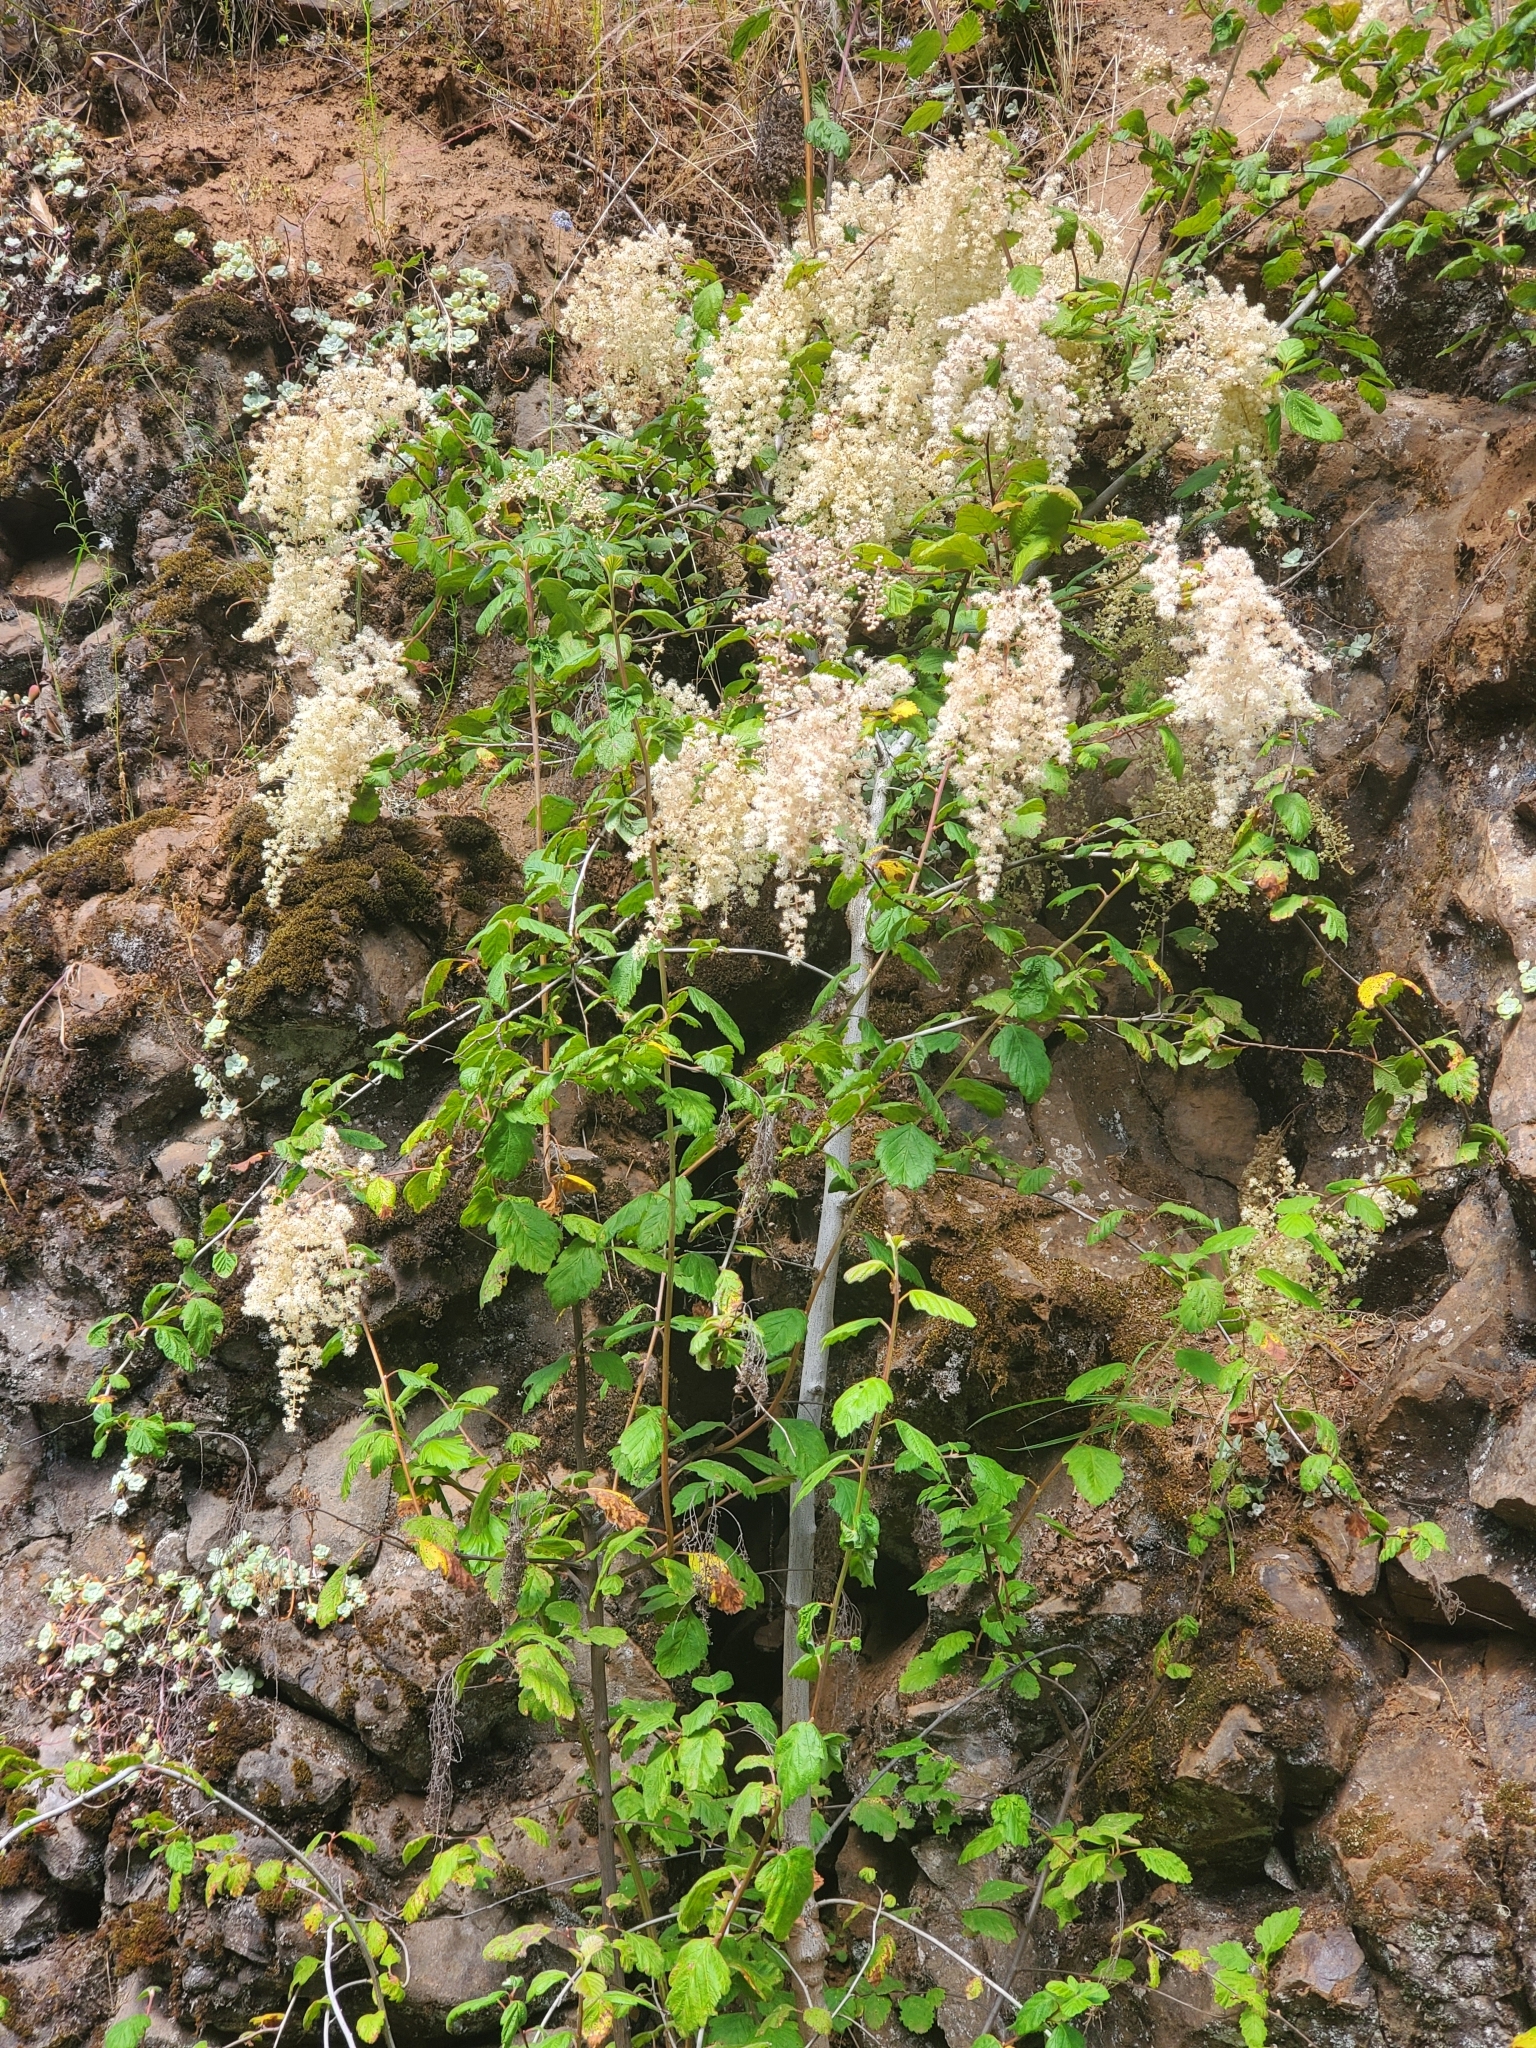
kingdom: Plantae
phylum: Tracheophyta
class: Magnoliopsida
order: Rosales
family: Rosaceae
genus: Holodiscus
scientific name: Holodiscus discolor
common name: Oceanspray
